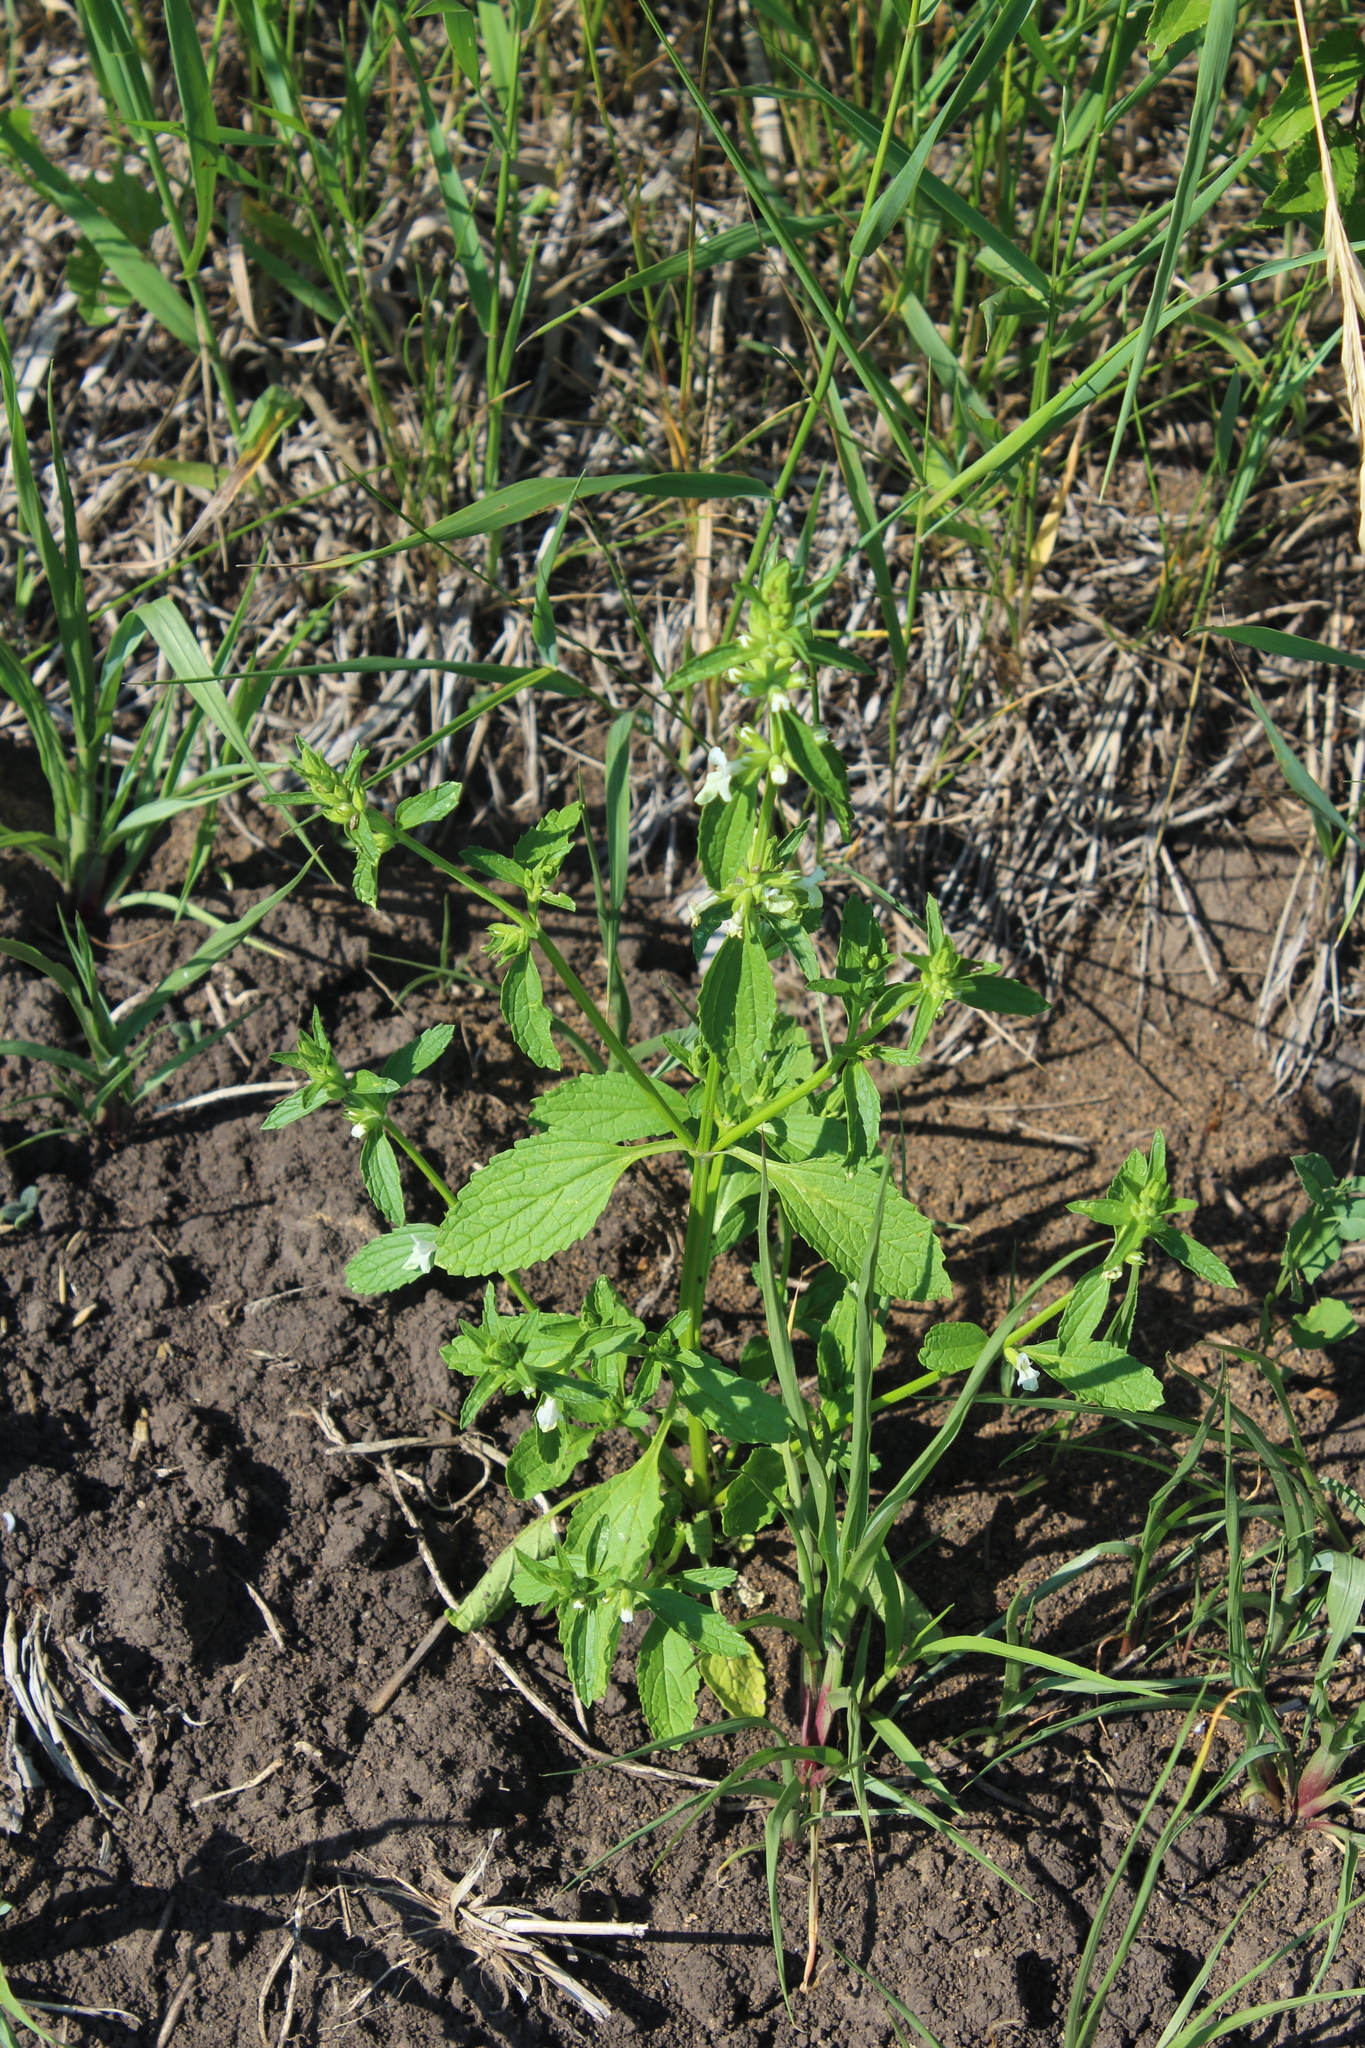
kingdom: Plantae
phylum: Tracheophyta
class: Magnoliopsida
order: Lamiales
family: Lamiaceae
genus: Stachys
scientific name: Stachys annua
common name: Annual yellow-woundwort
